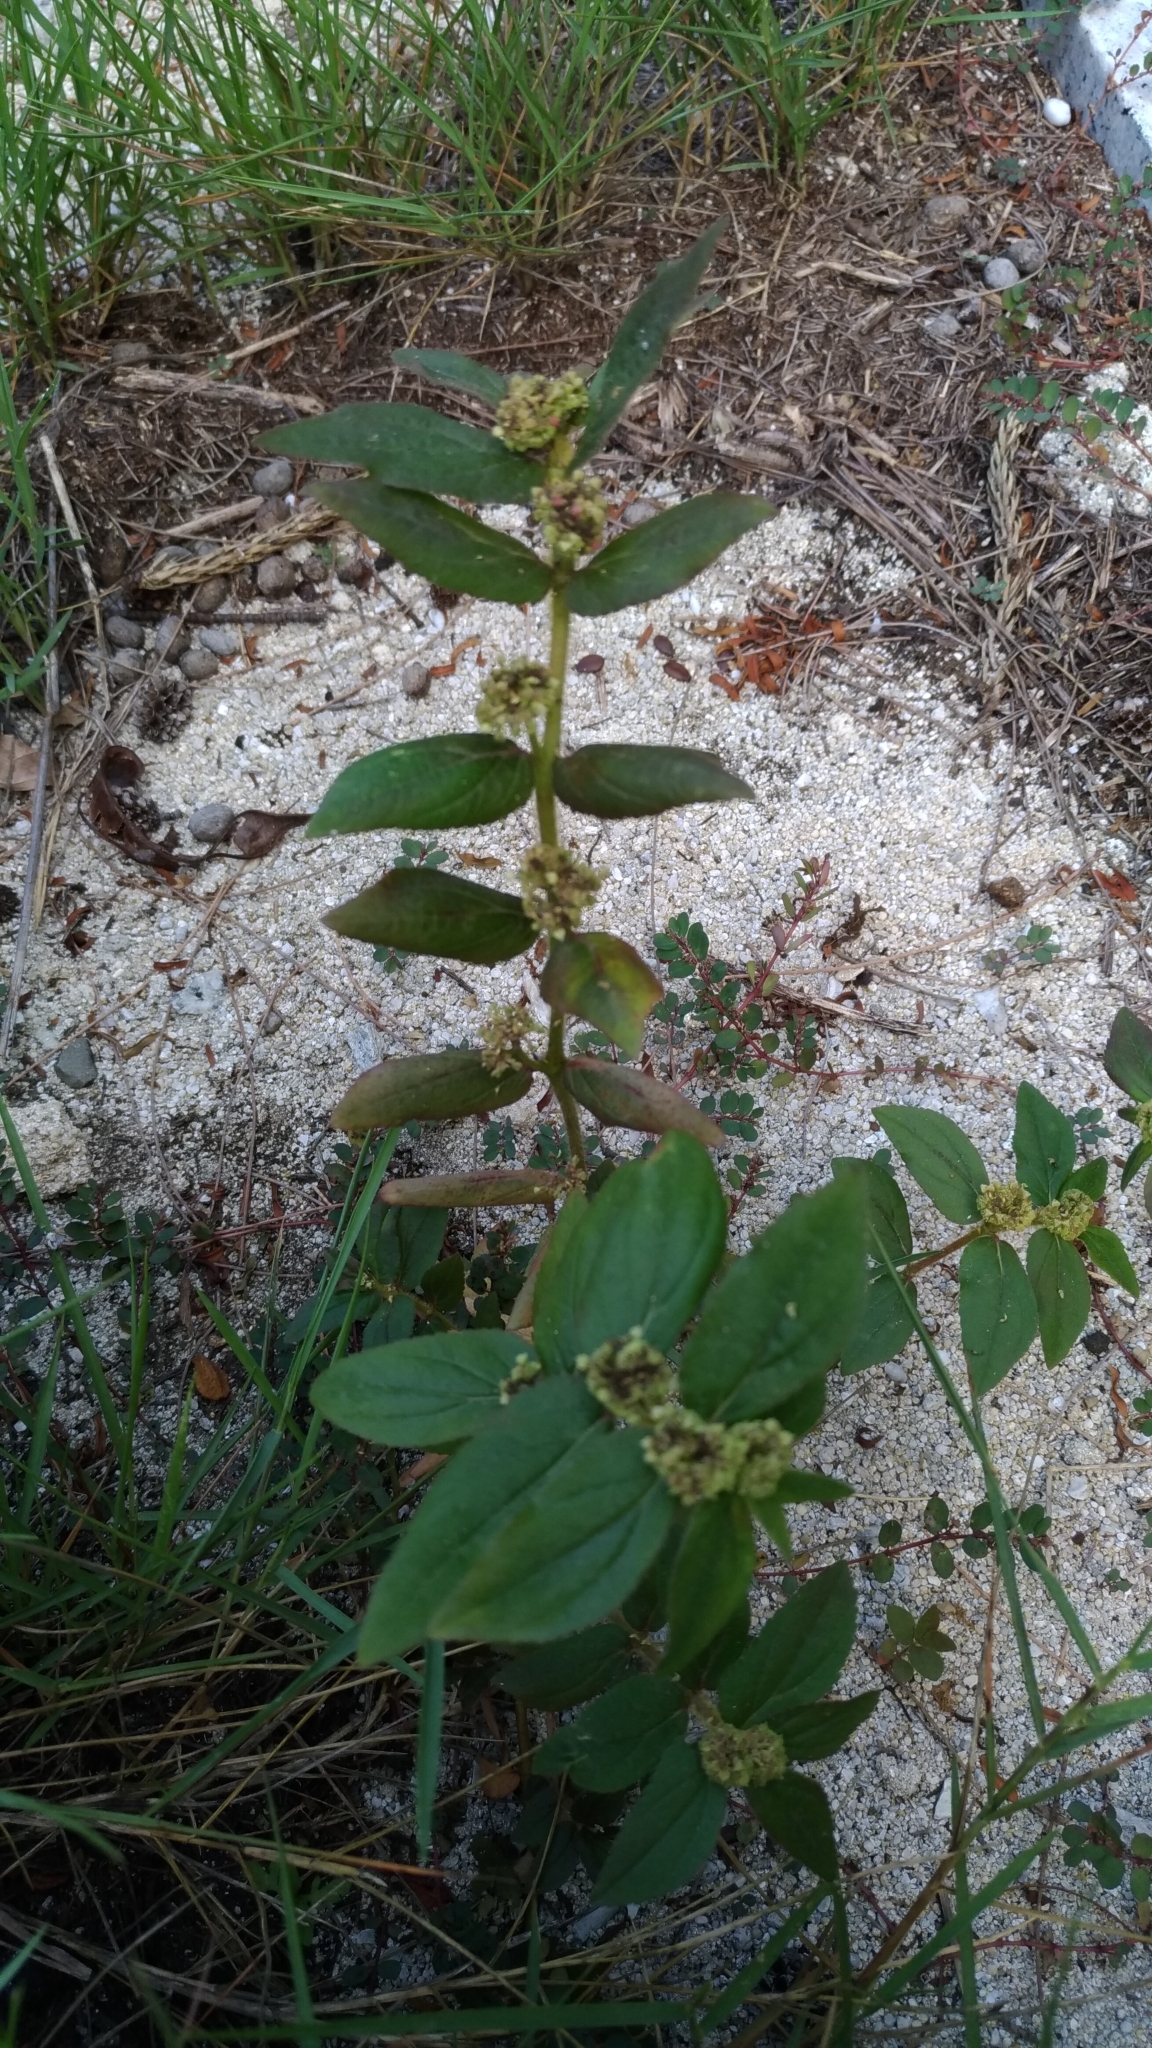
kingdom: Plantae
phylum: Tracheophyta
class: Magnoliopsida
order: Malpighiales
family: Euphorbiaceae
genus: Euphorbia
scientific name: Euphorbia hirta
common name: Pillpod sandmat
